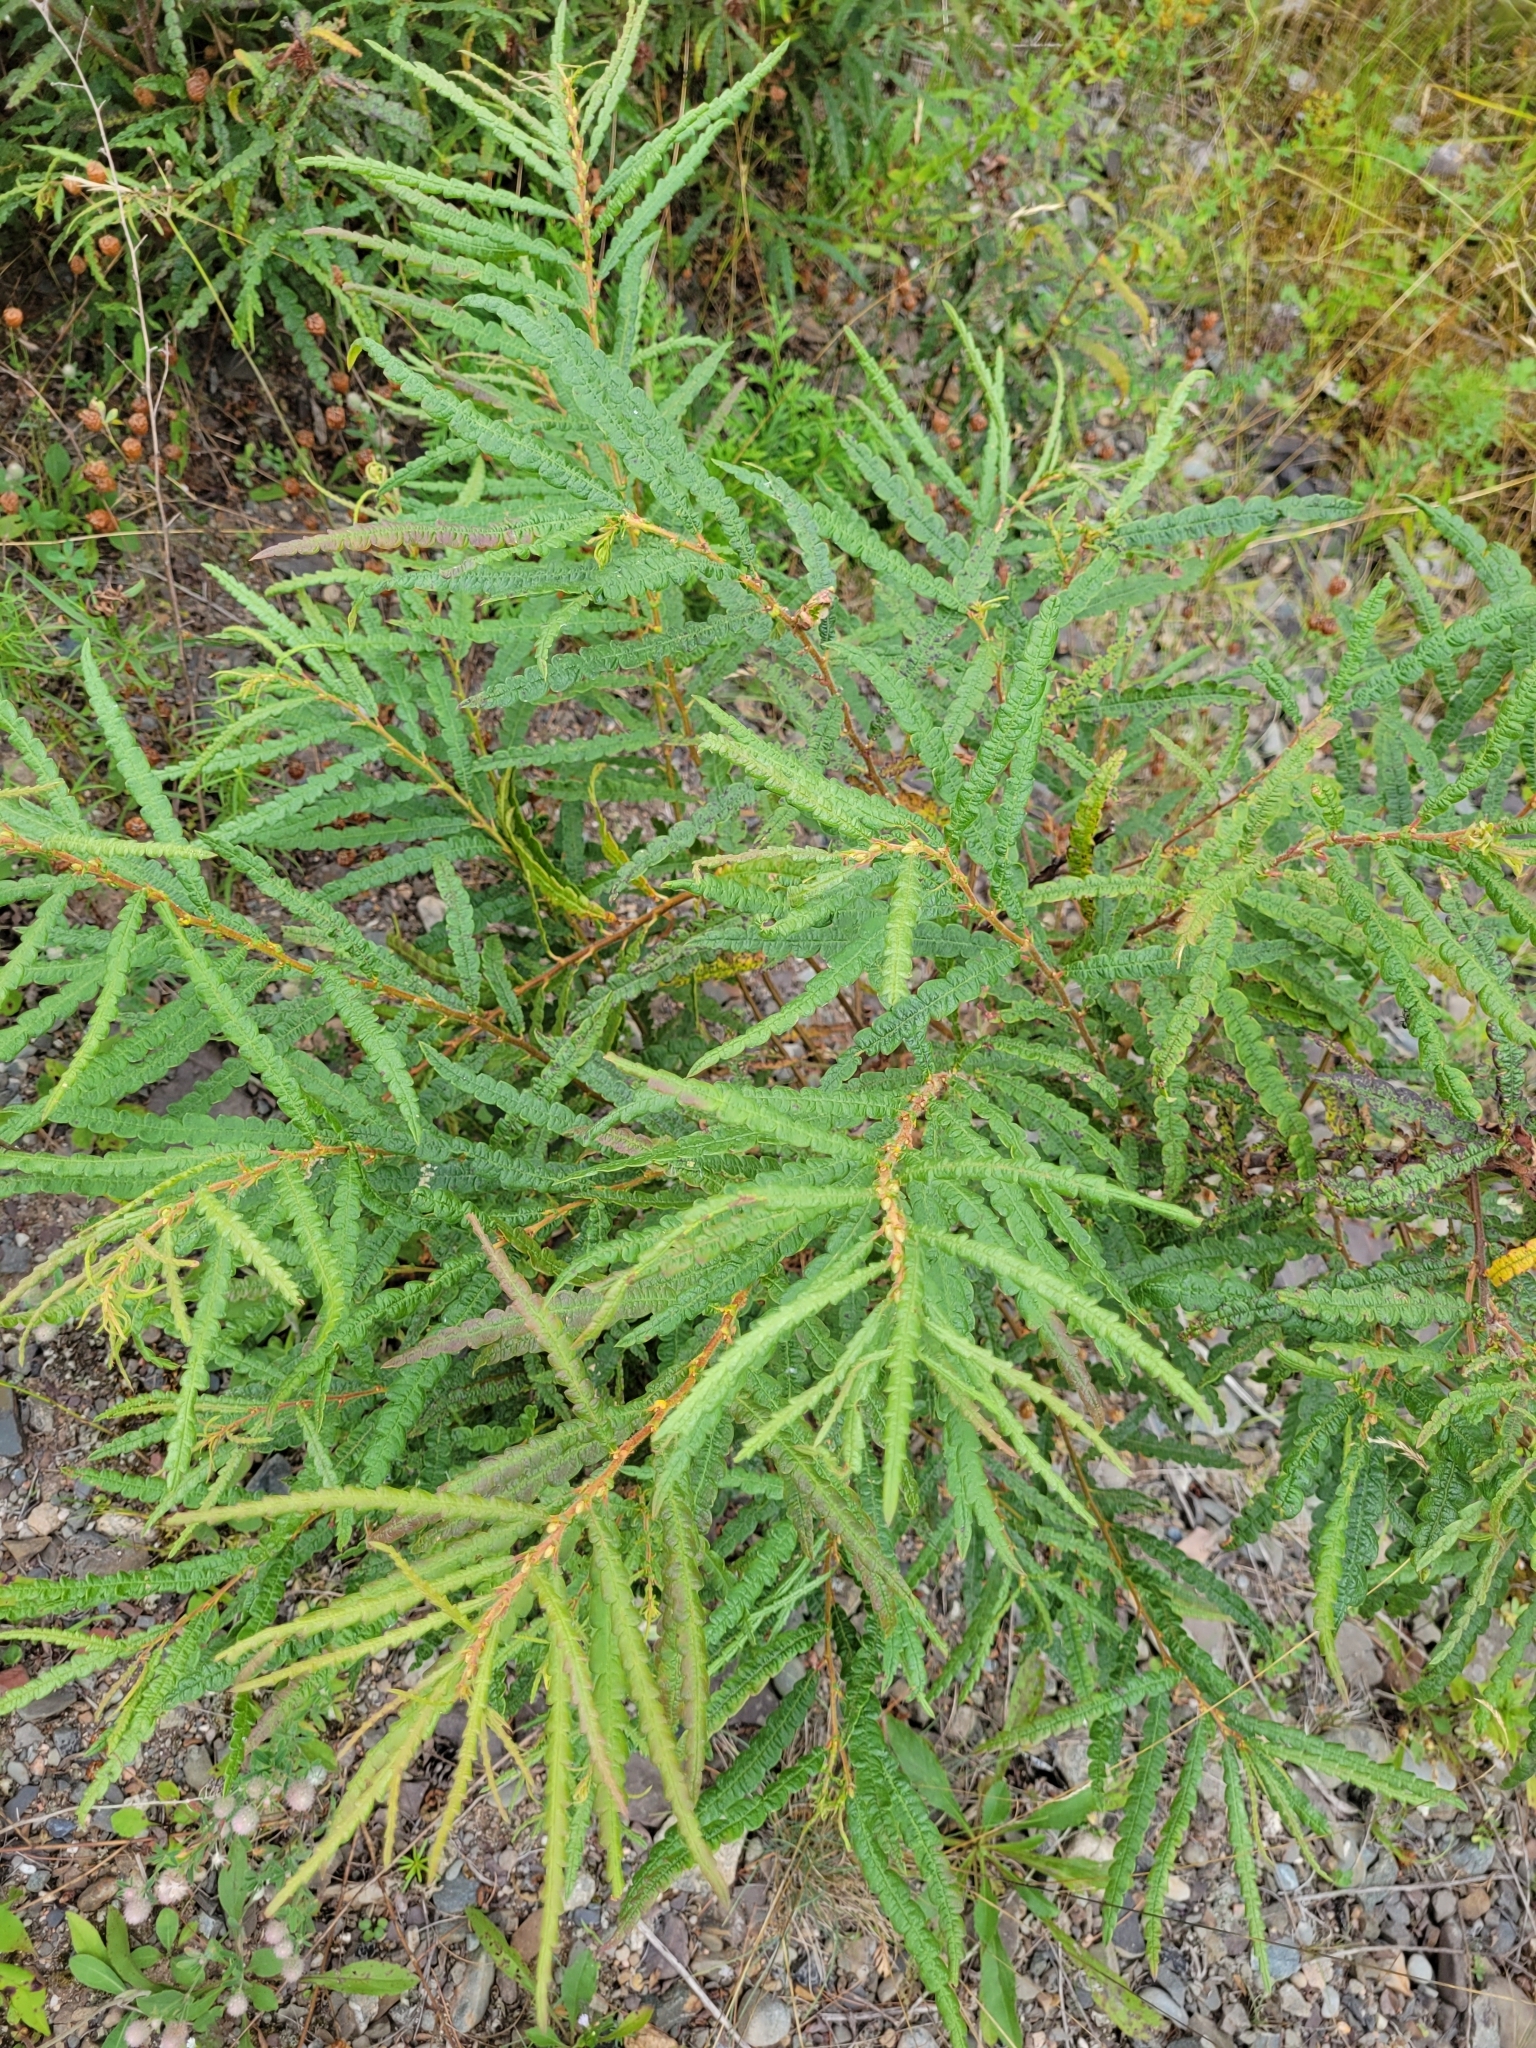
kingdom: Plantae
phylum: Tracheophyta
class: Magnoliopsida
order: Fagales
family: Myricaceae
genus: Comptonia
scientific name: Comptonia peregrina
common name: Sweet-fern
